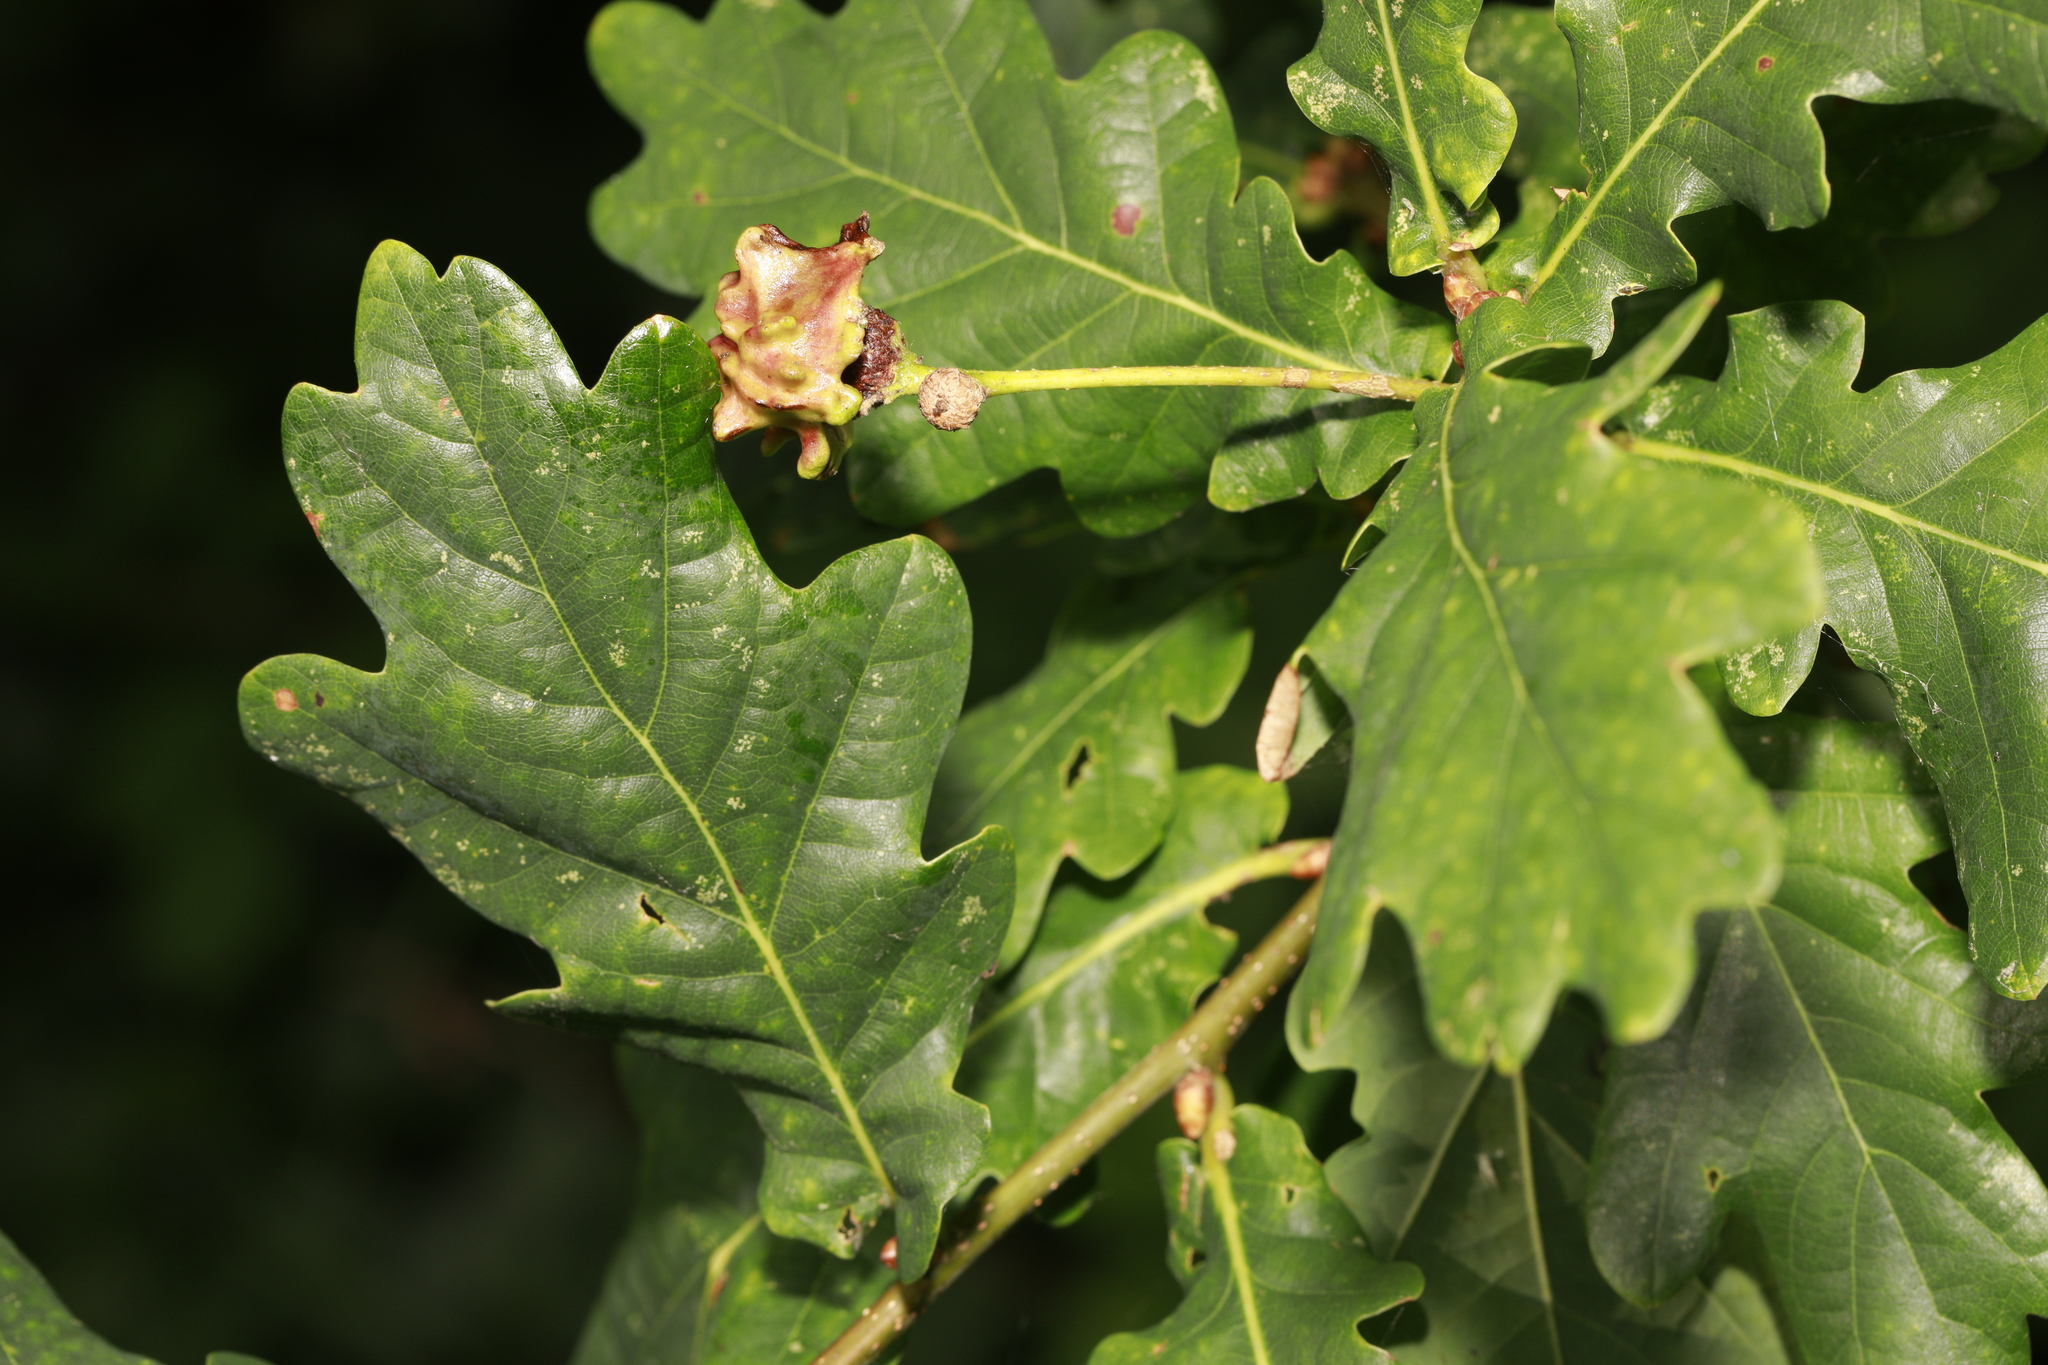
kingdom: Animalia
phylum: Arthropoda
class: Insecta
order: Hymenoptera
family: Cynipidae
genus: Andricus
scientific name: Andricus quercuscalicis
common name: Knopper gall
